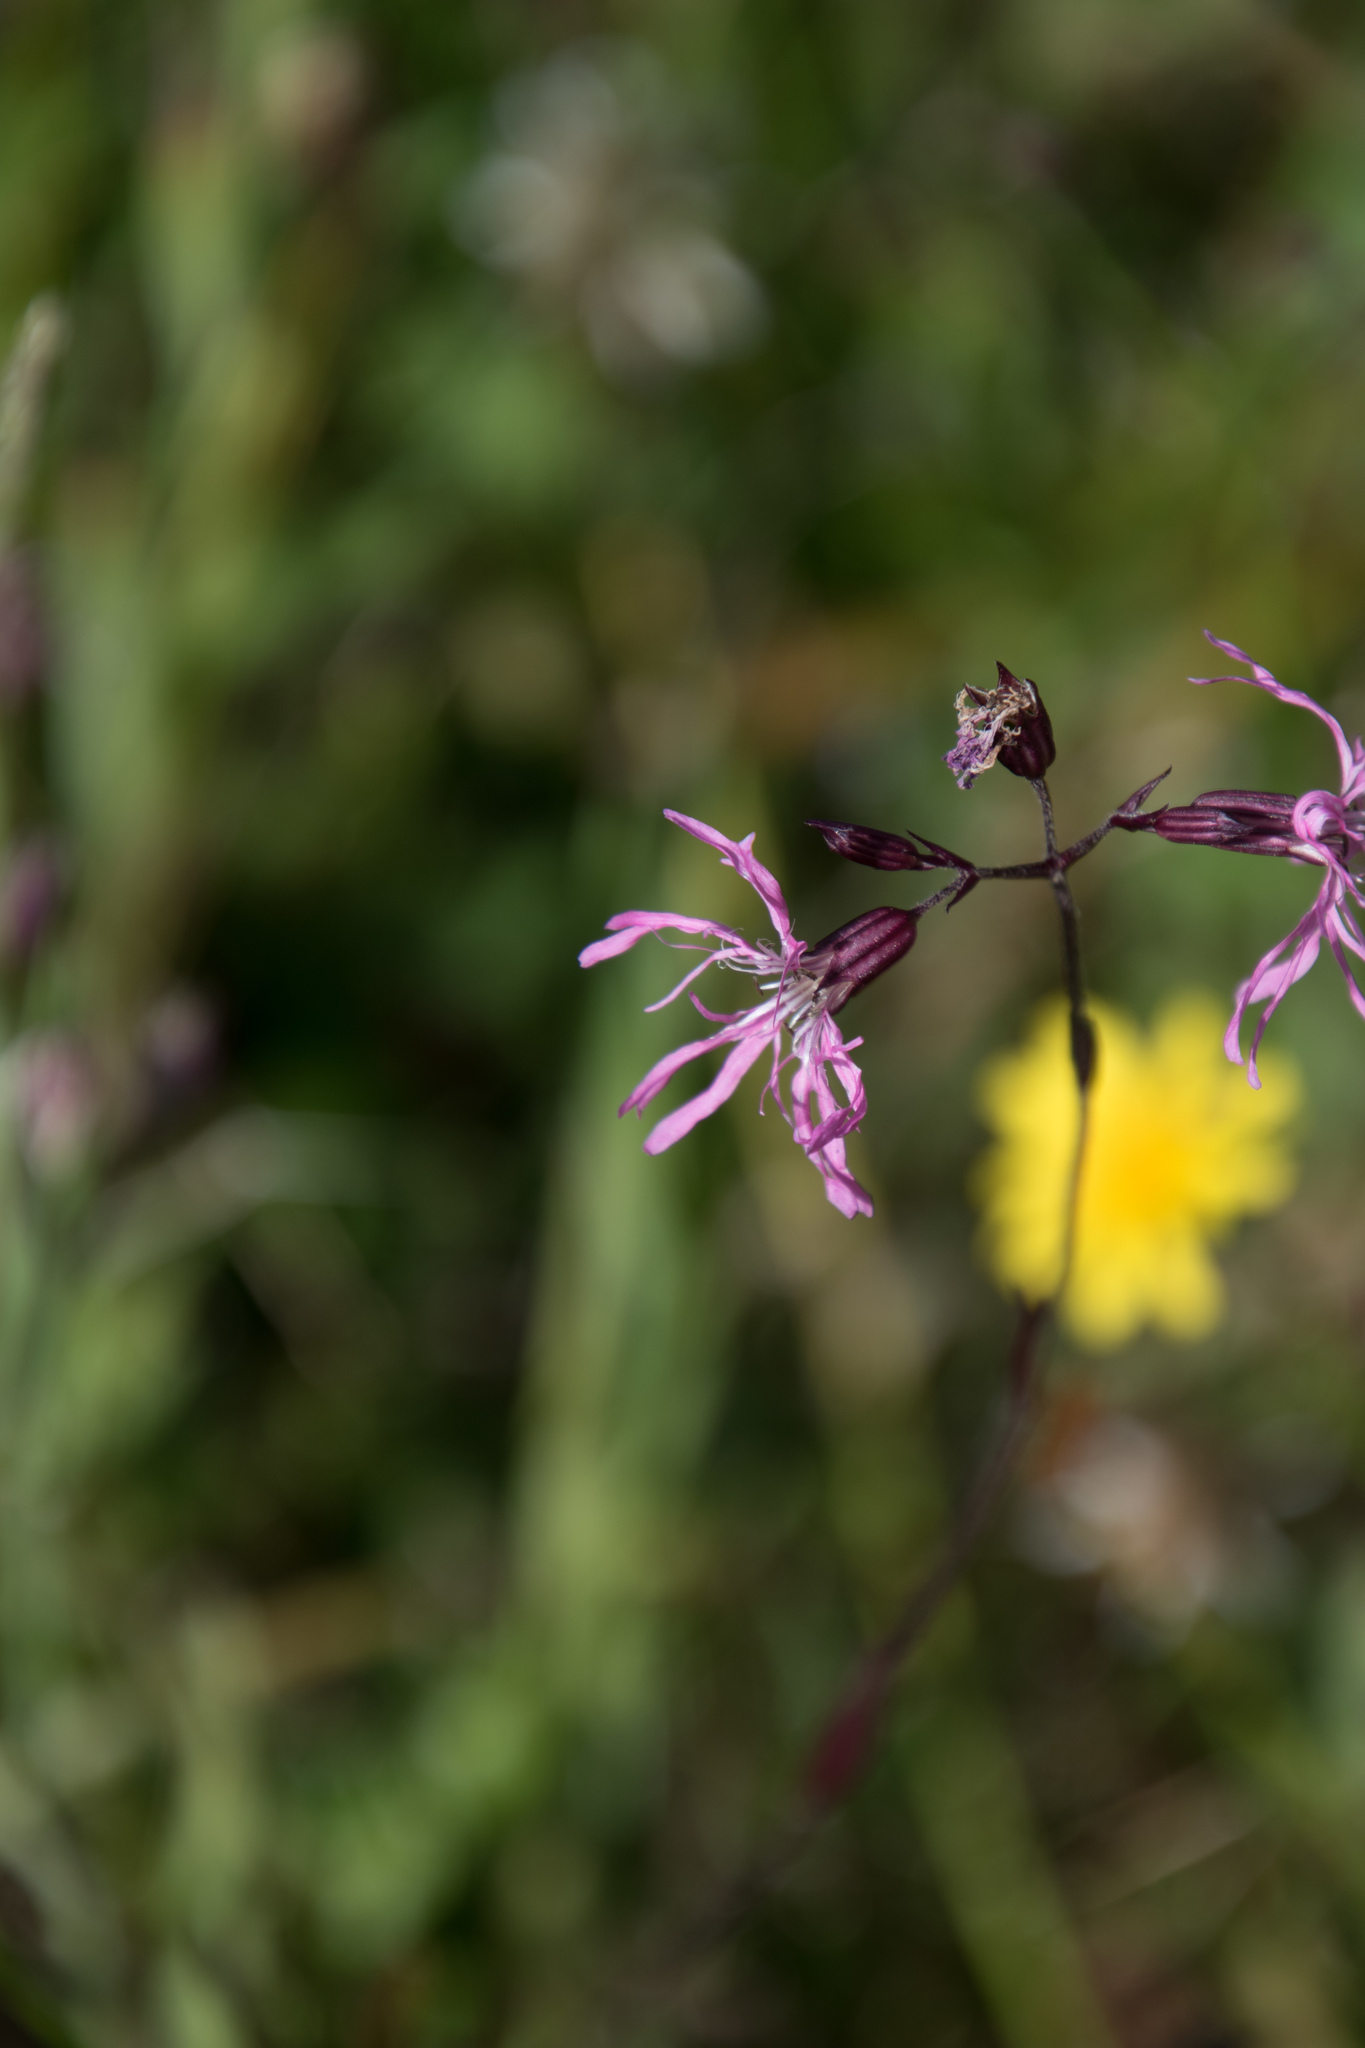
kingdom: Plantae
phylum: Tracheophyta
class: Magnoliopsida
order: Caryophyllales
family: Caryophyllaceae
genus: Silene
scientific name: Silene flos-cuculi
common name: Ragged-robin
